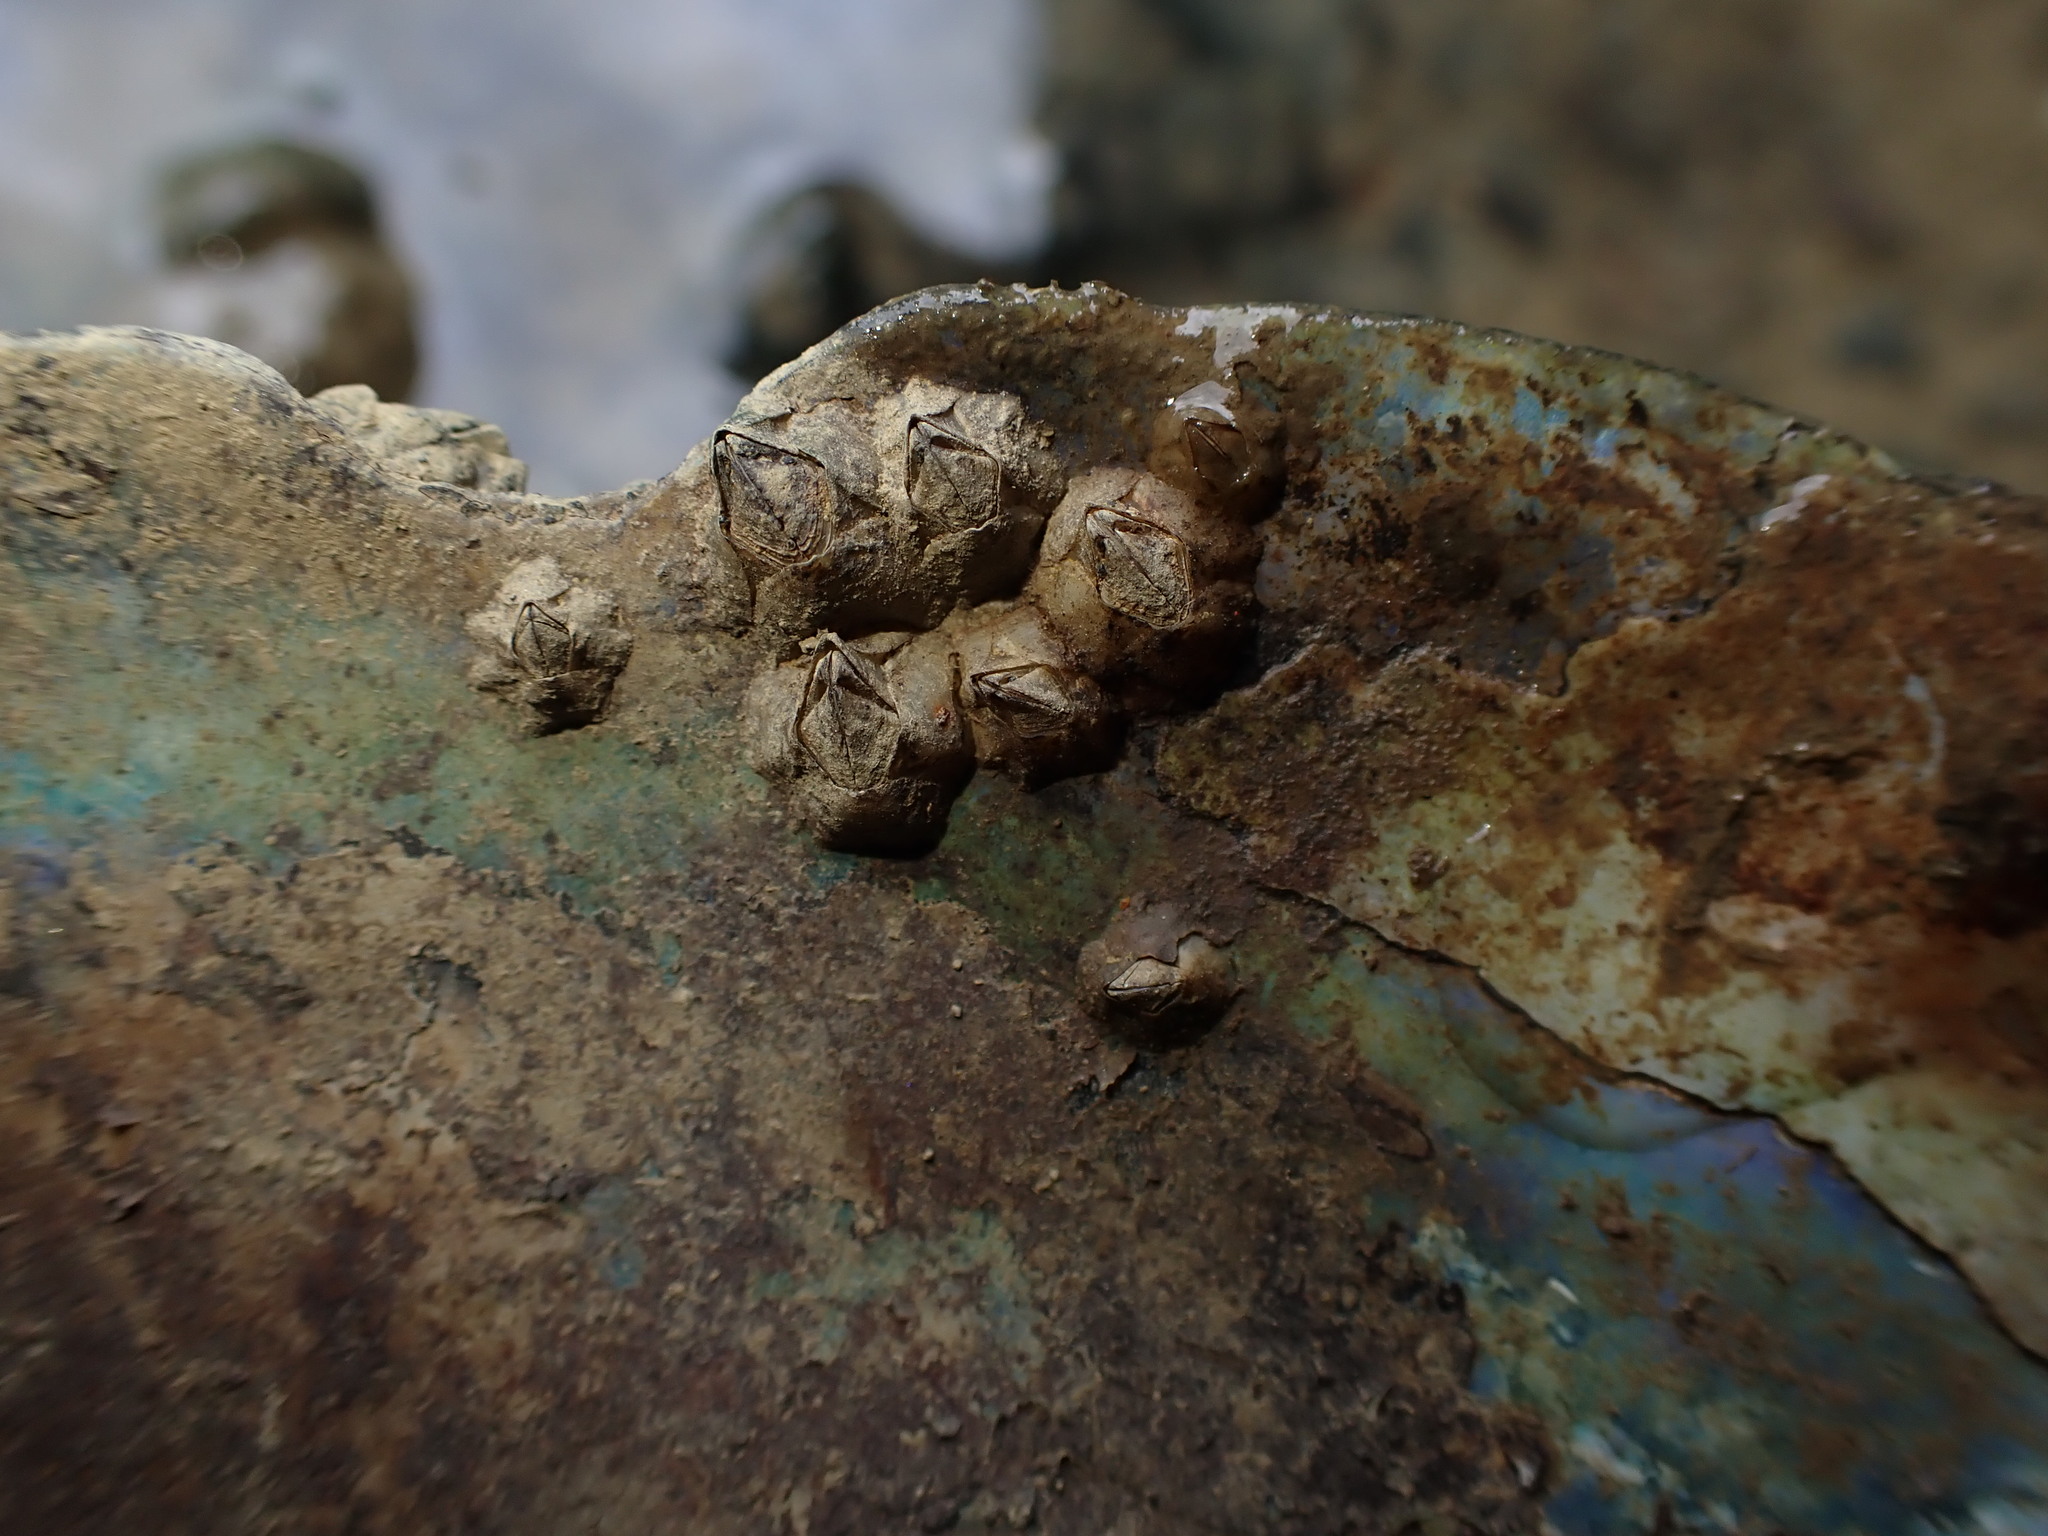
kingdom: Animalia
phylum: Arthropoda
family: Elminiidae
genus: Austrominius
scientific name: Austrominius modestus
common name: Australasian barnacle
